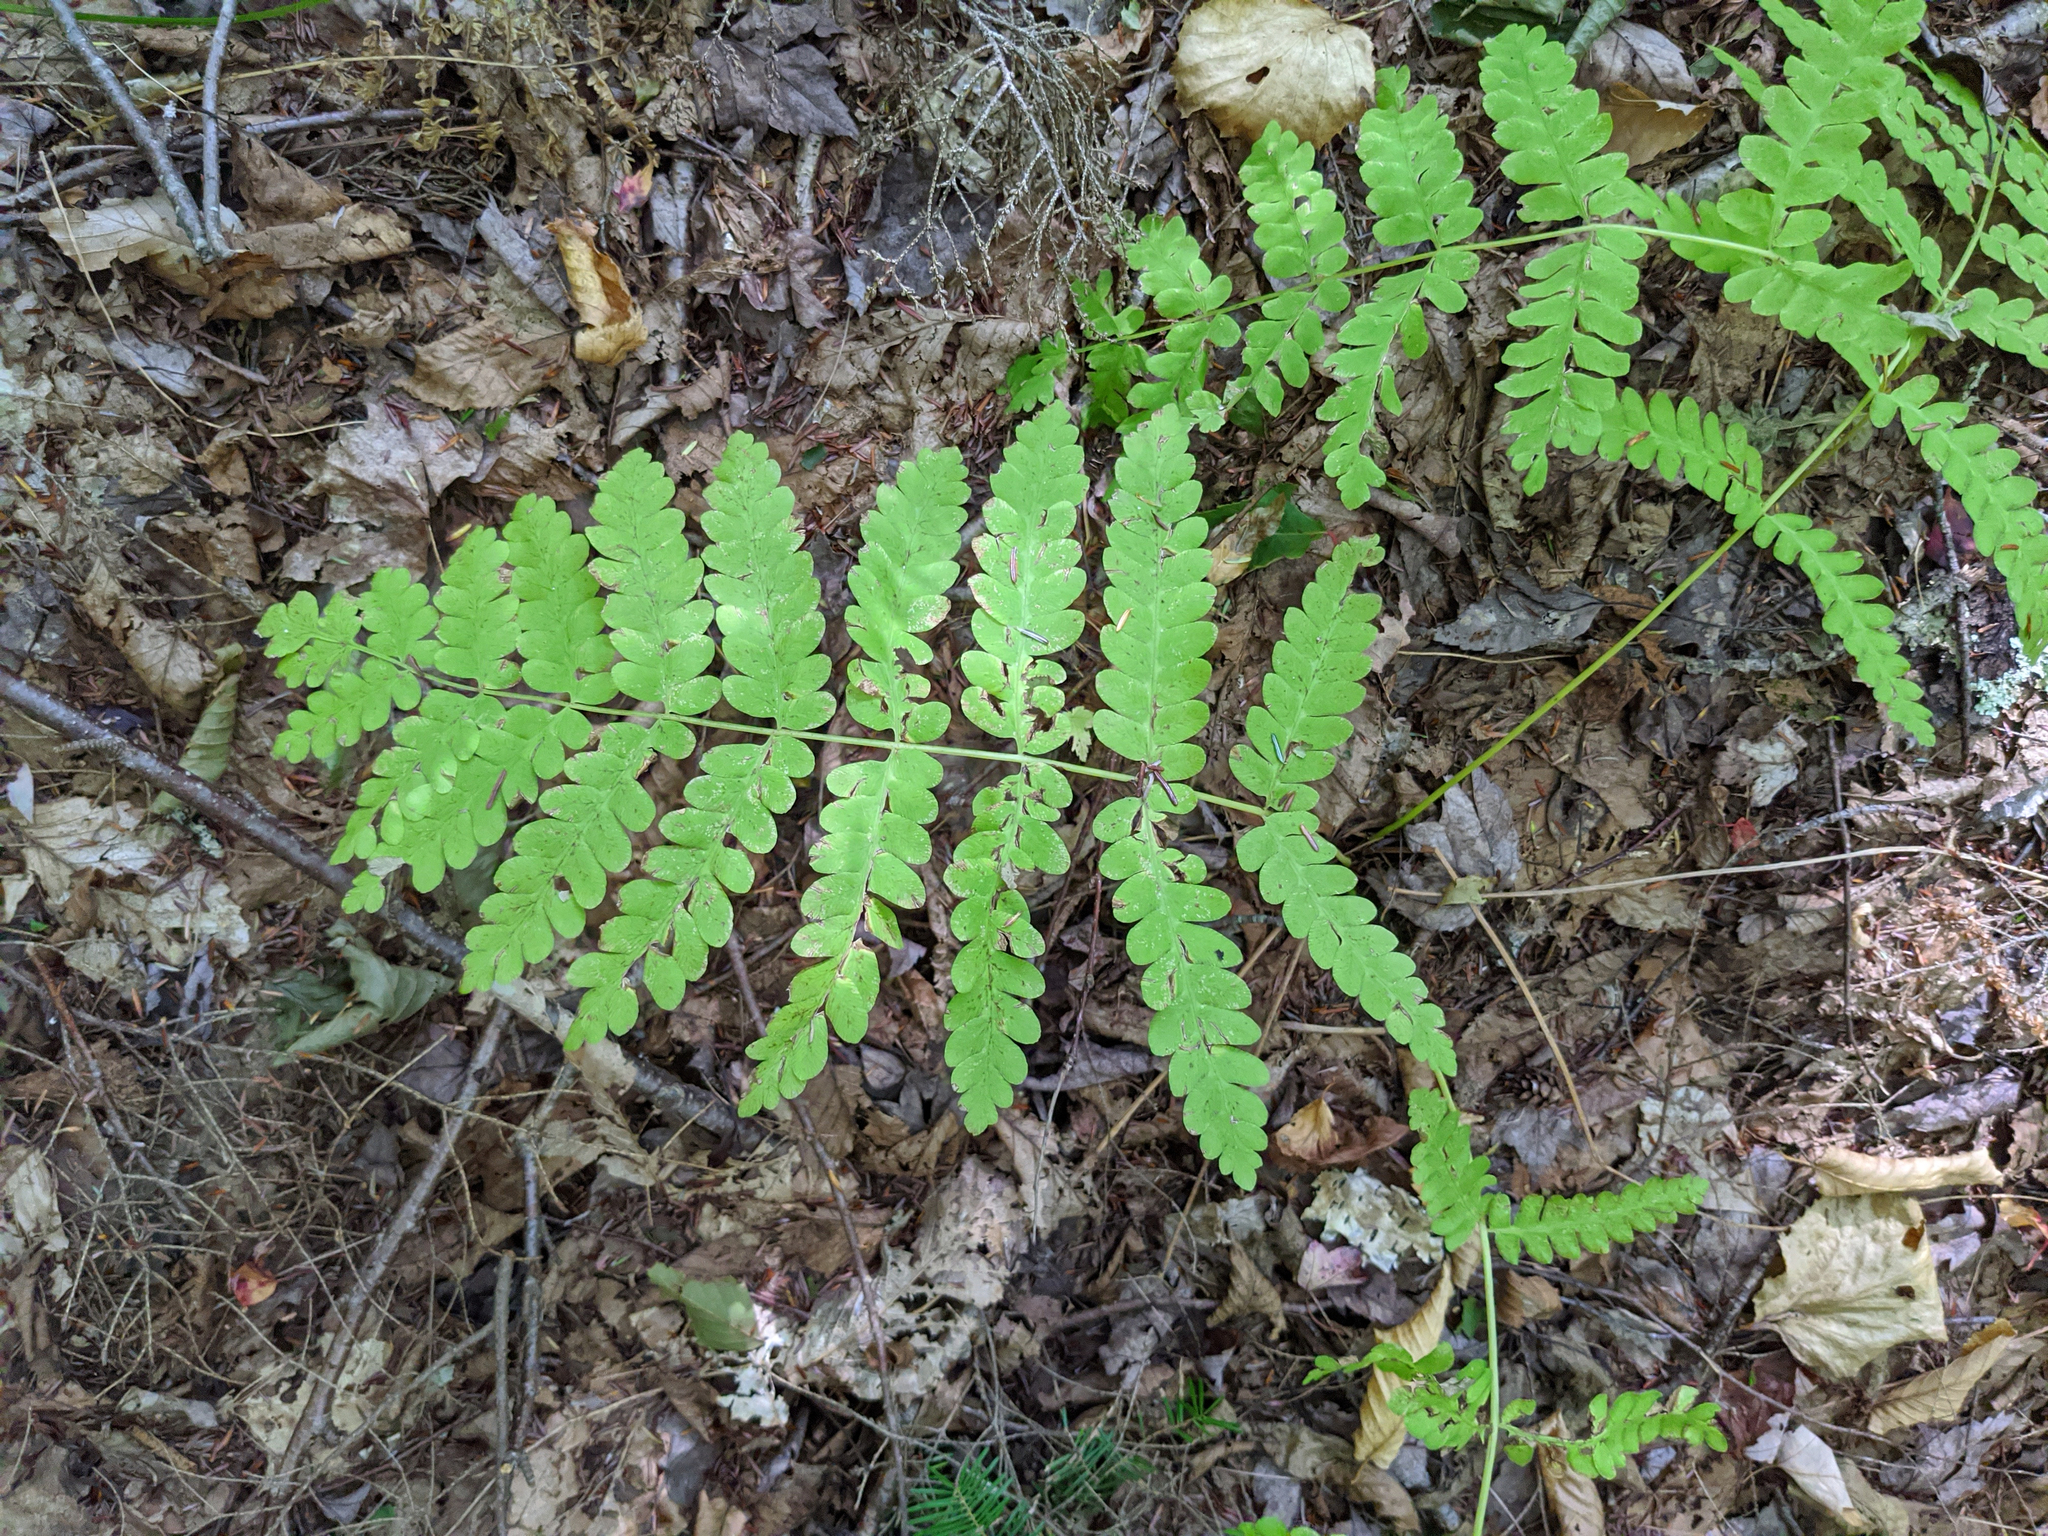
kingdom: Plantae
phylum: Tracheophyta
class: Polypodiopsida
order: Osmundales
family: Osmundaceae
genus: Claytosmunda
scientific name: Claytosmunda claytoniana
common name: Clayton's fern
